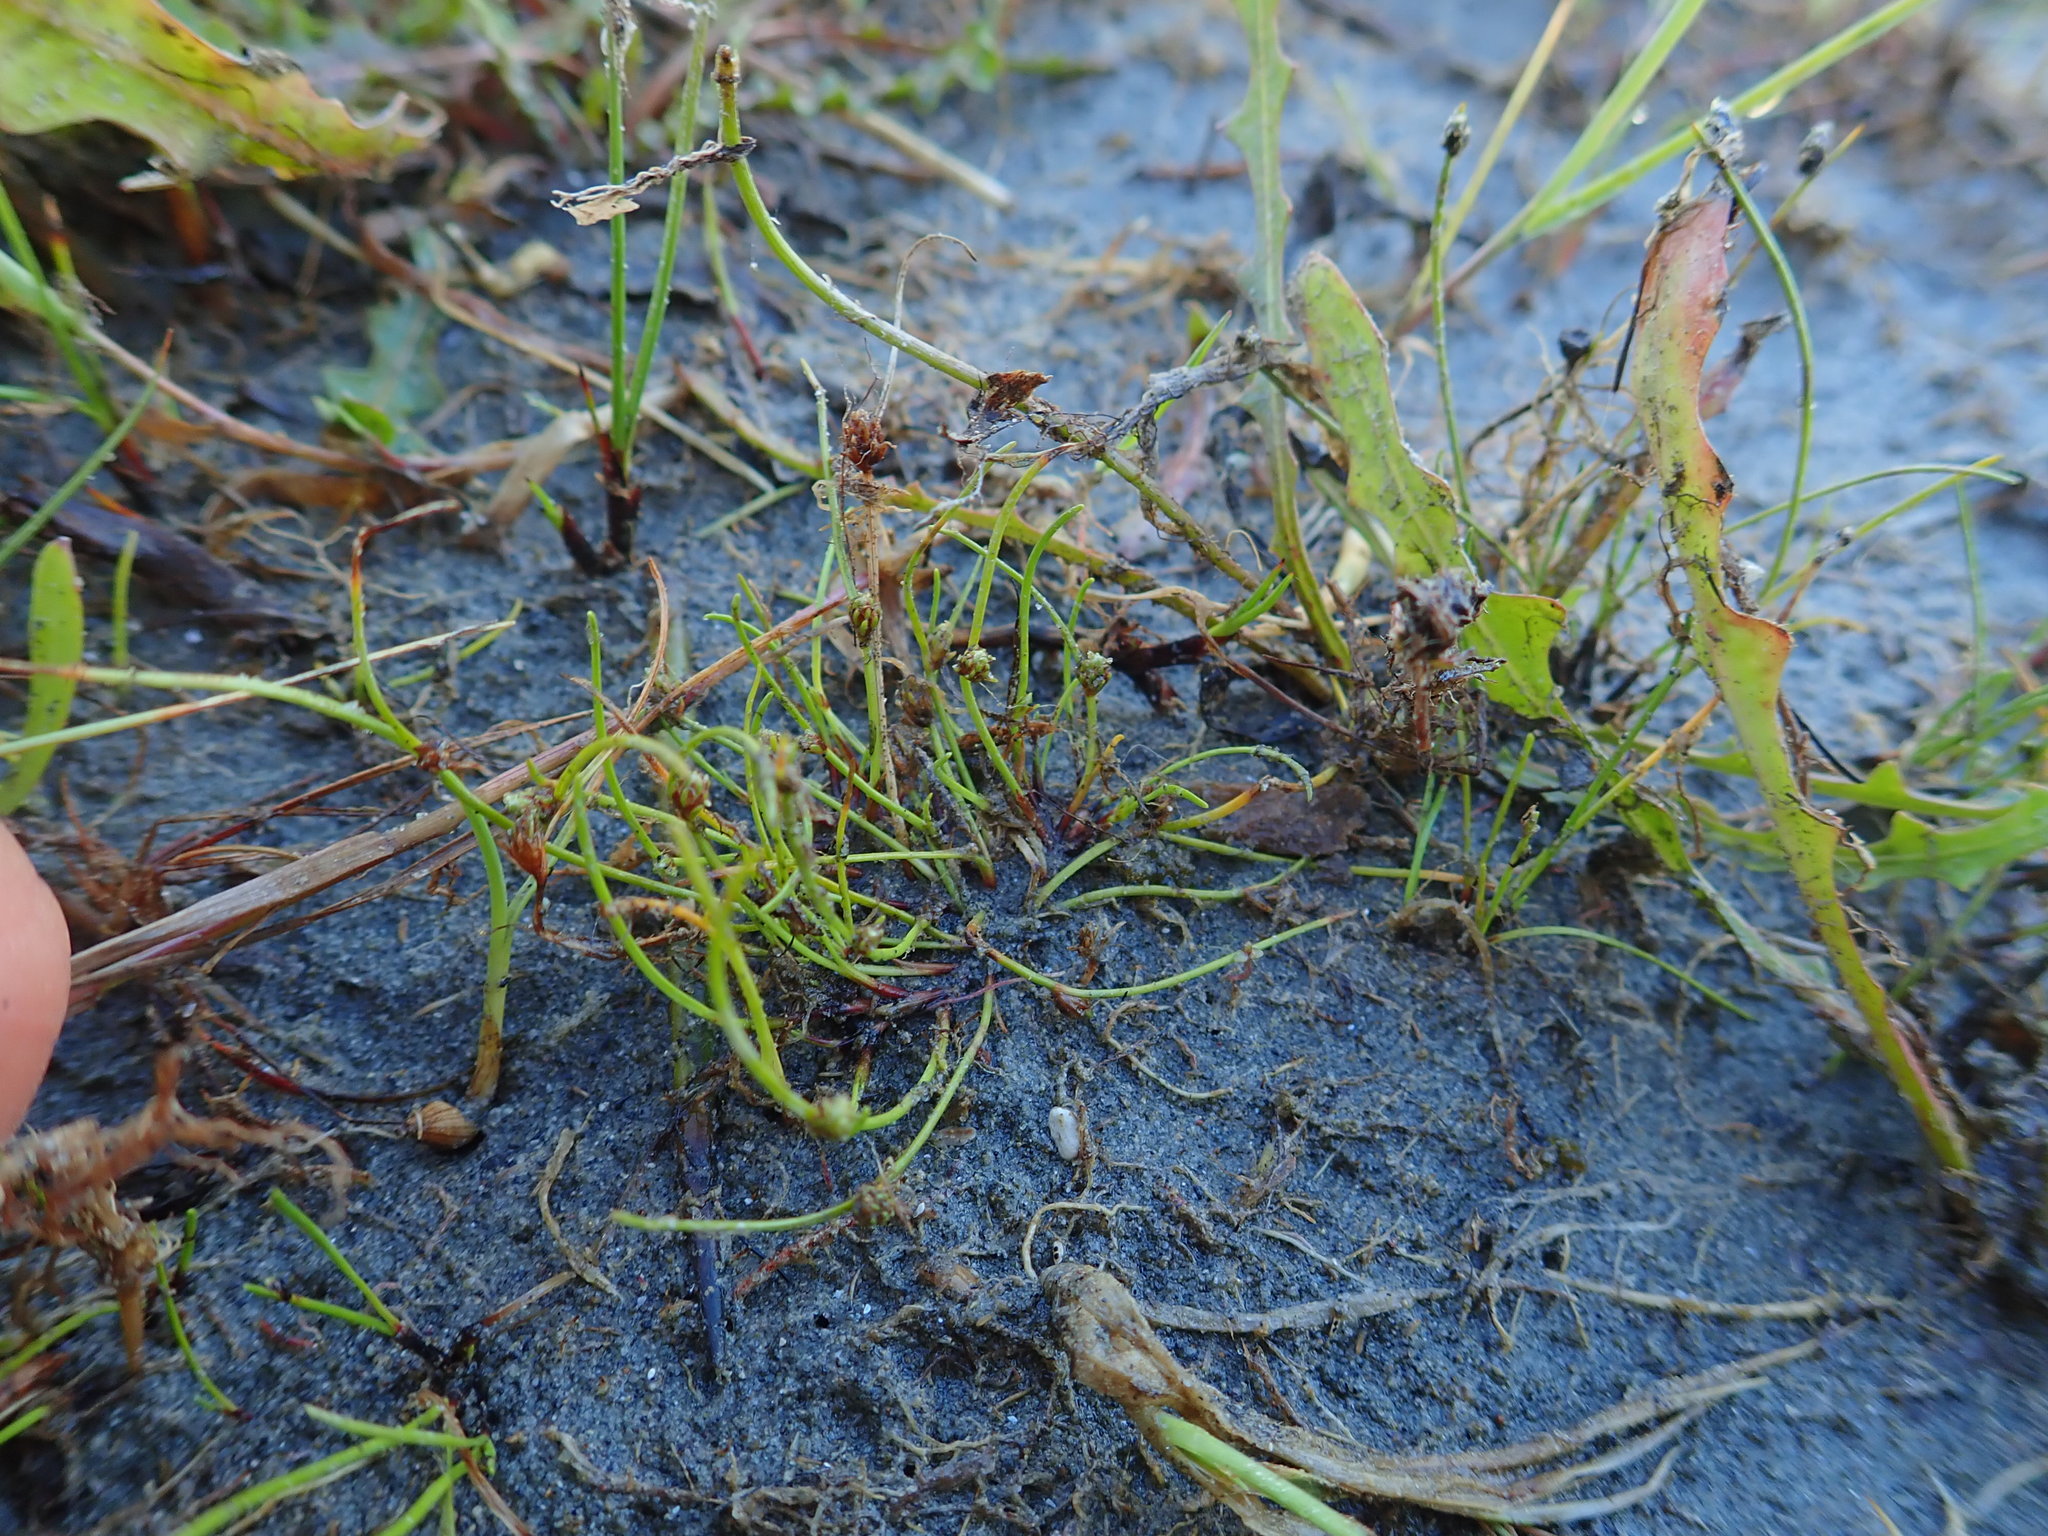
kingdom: Plantae
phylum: Tracheophyta
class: Liliopsida
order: Poales
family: Cyperaceae
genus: Isolepis
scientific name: Isolepis basilaris
